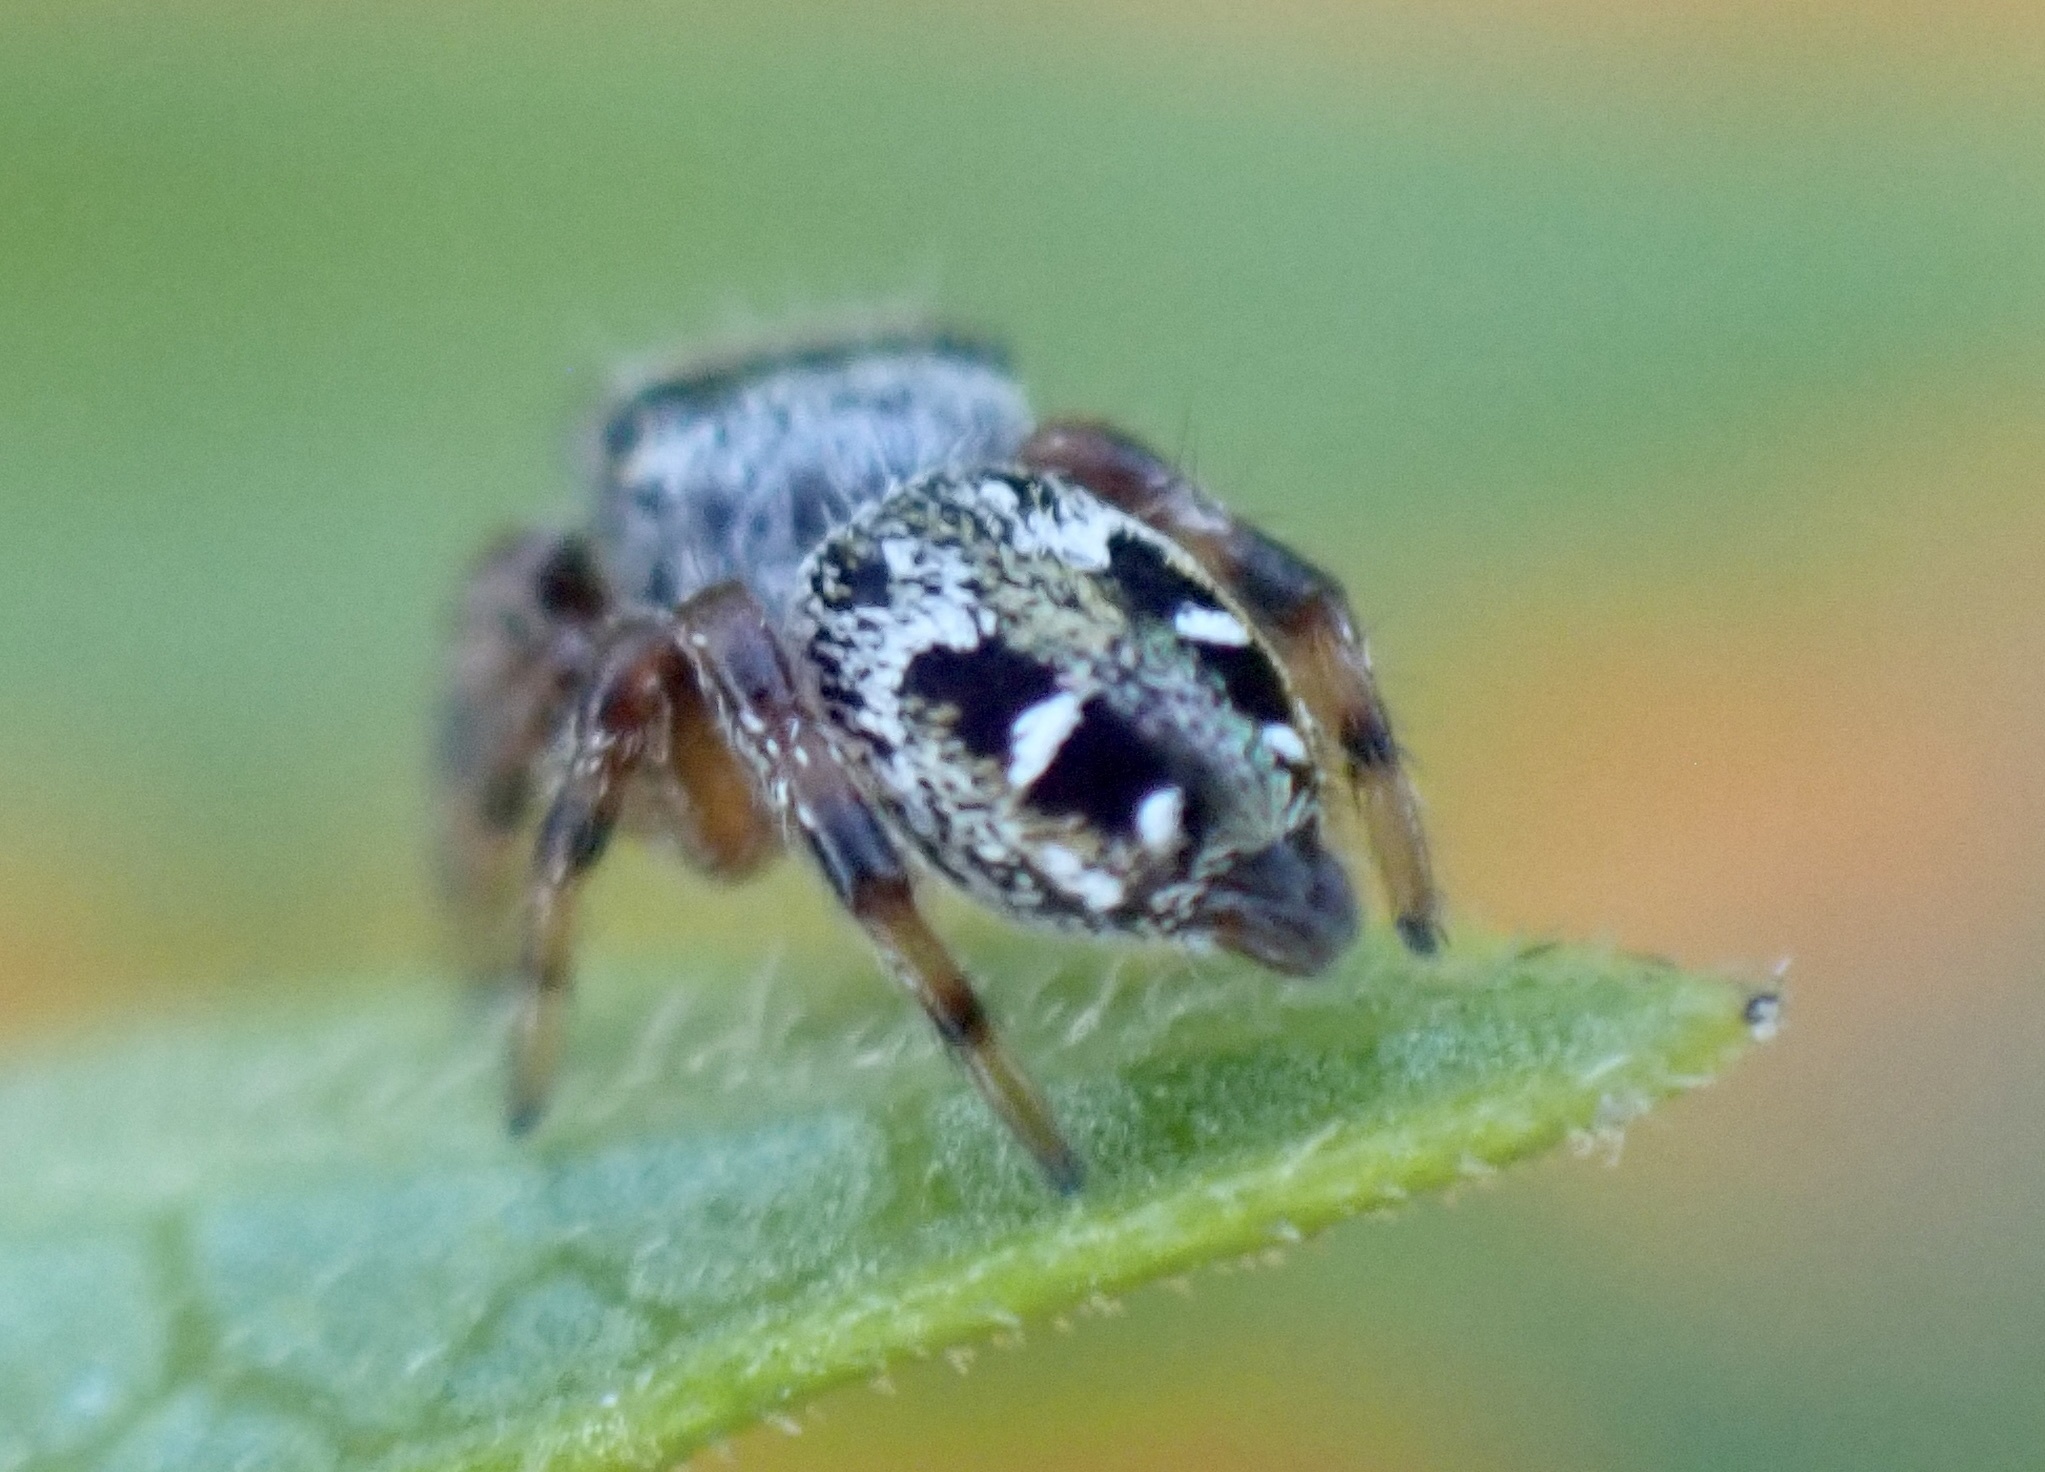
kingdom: Animalia
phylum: Arthropoda
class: Arachnida
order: Araneae
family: Salticidae
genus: Phidippus
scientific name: Phidippus clarus
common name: Brilliant jumping spider
